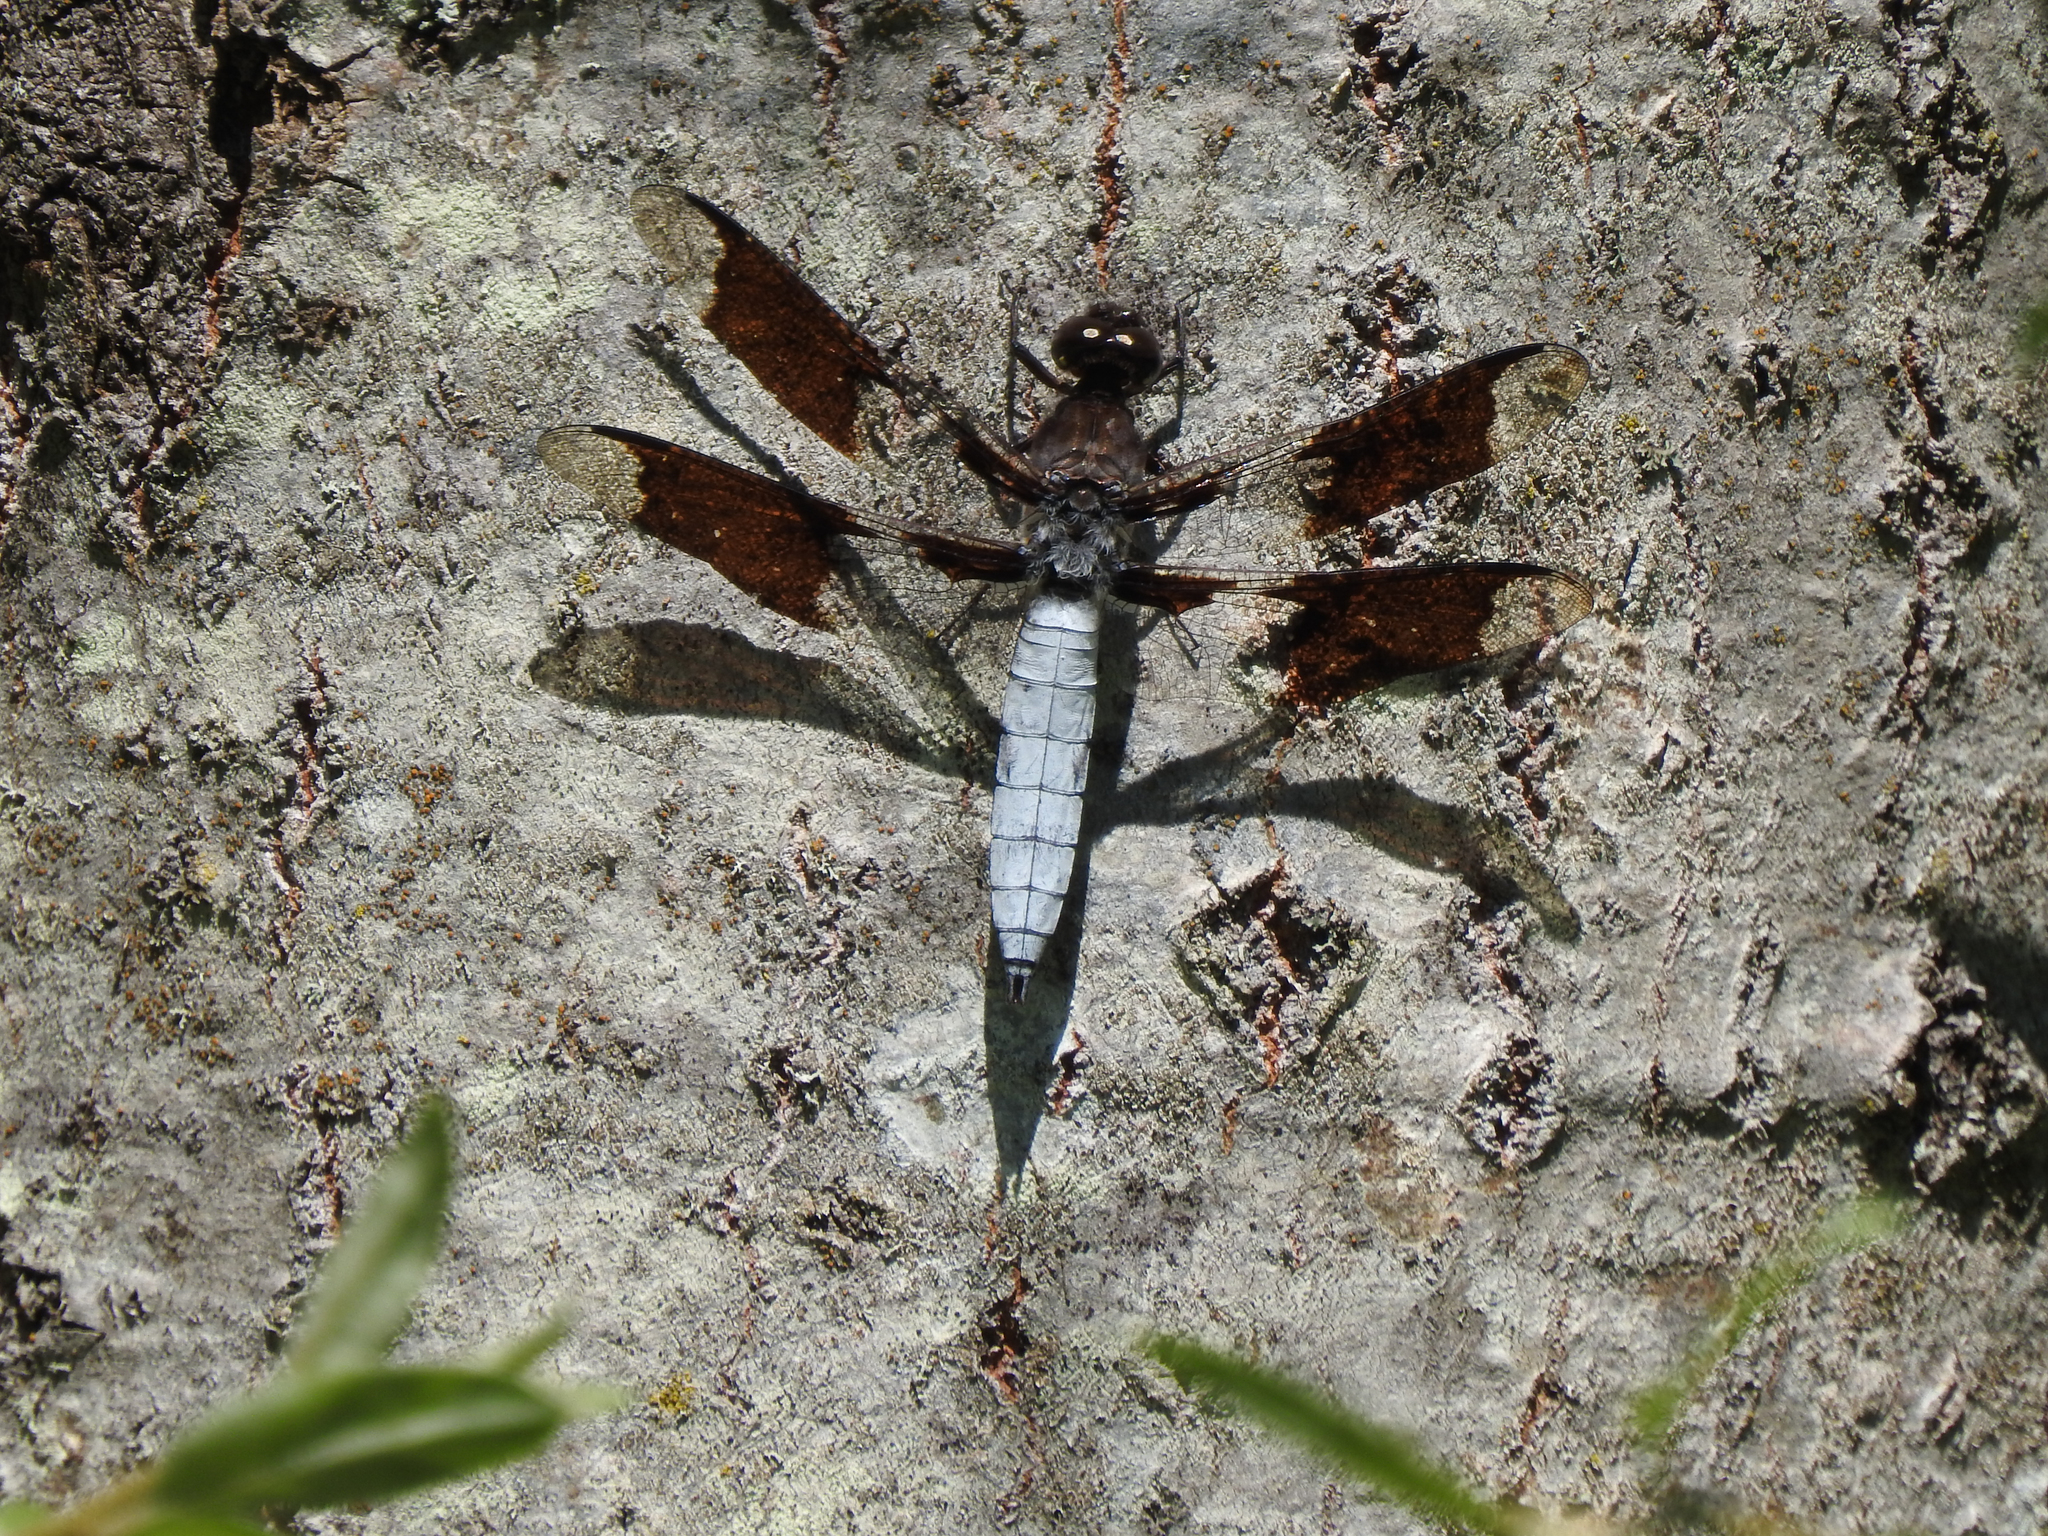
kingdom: Animalia
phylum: Arthropoda
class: Insecta
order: Odonata
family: Libellulidae
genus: Plathemis
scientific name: Plathemis lydia
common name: Common whitetail
